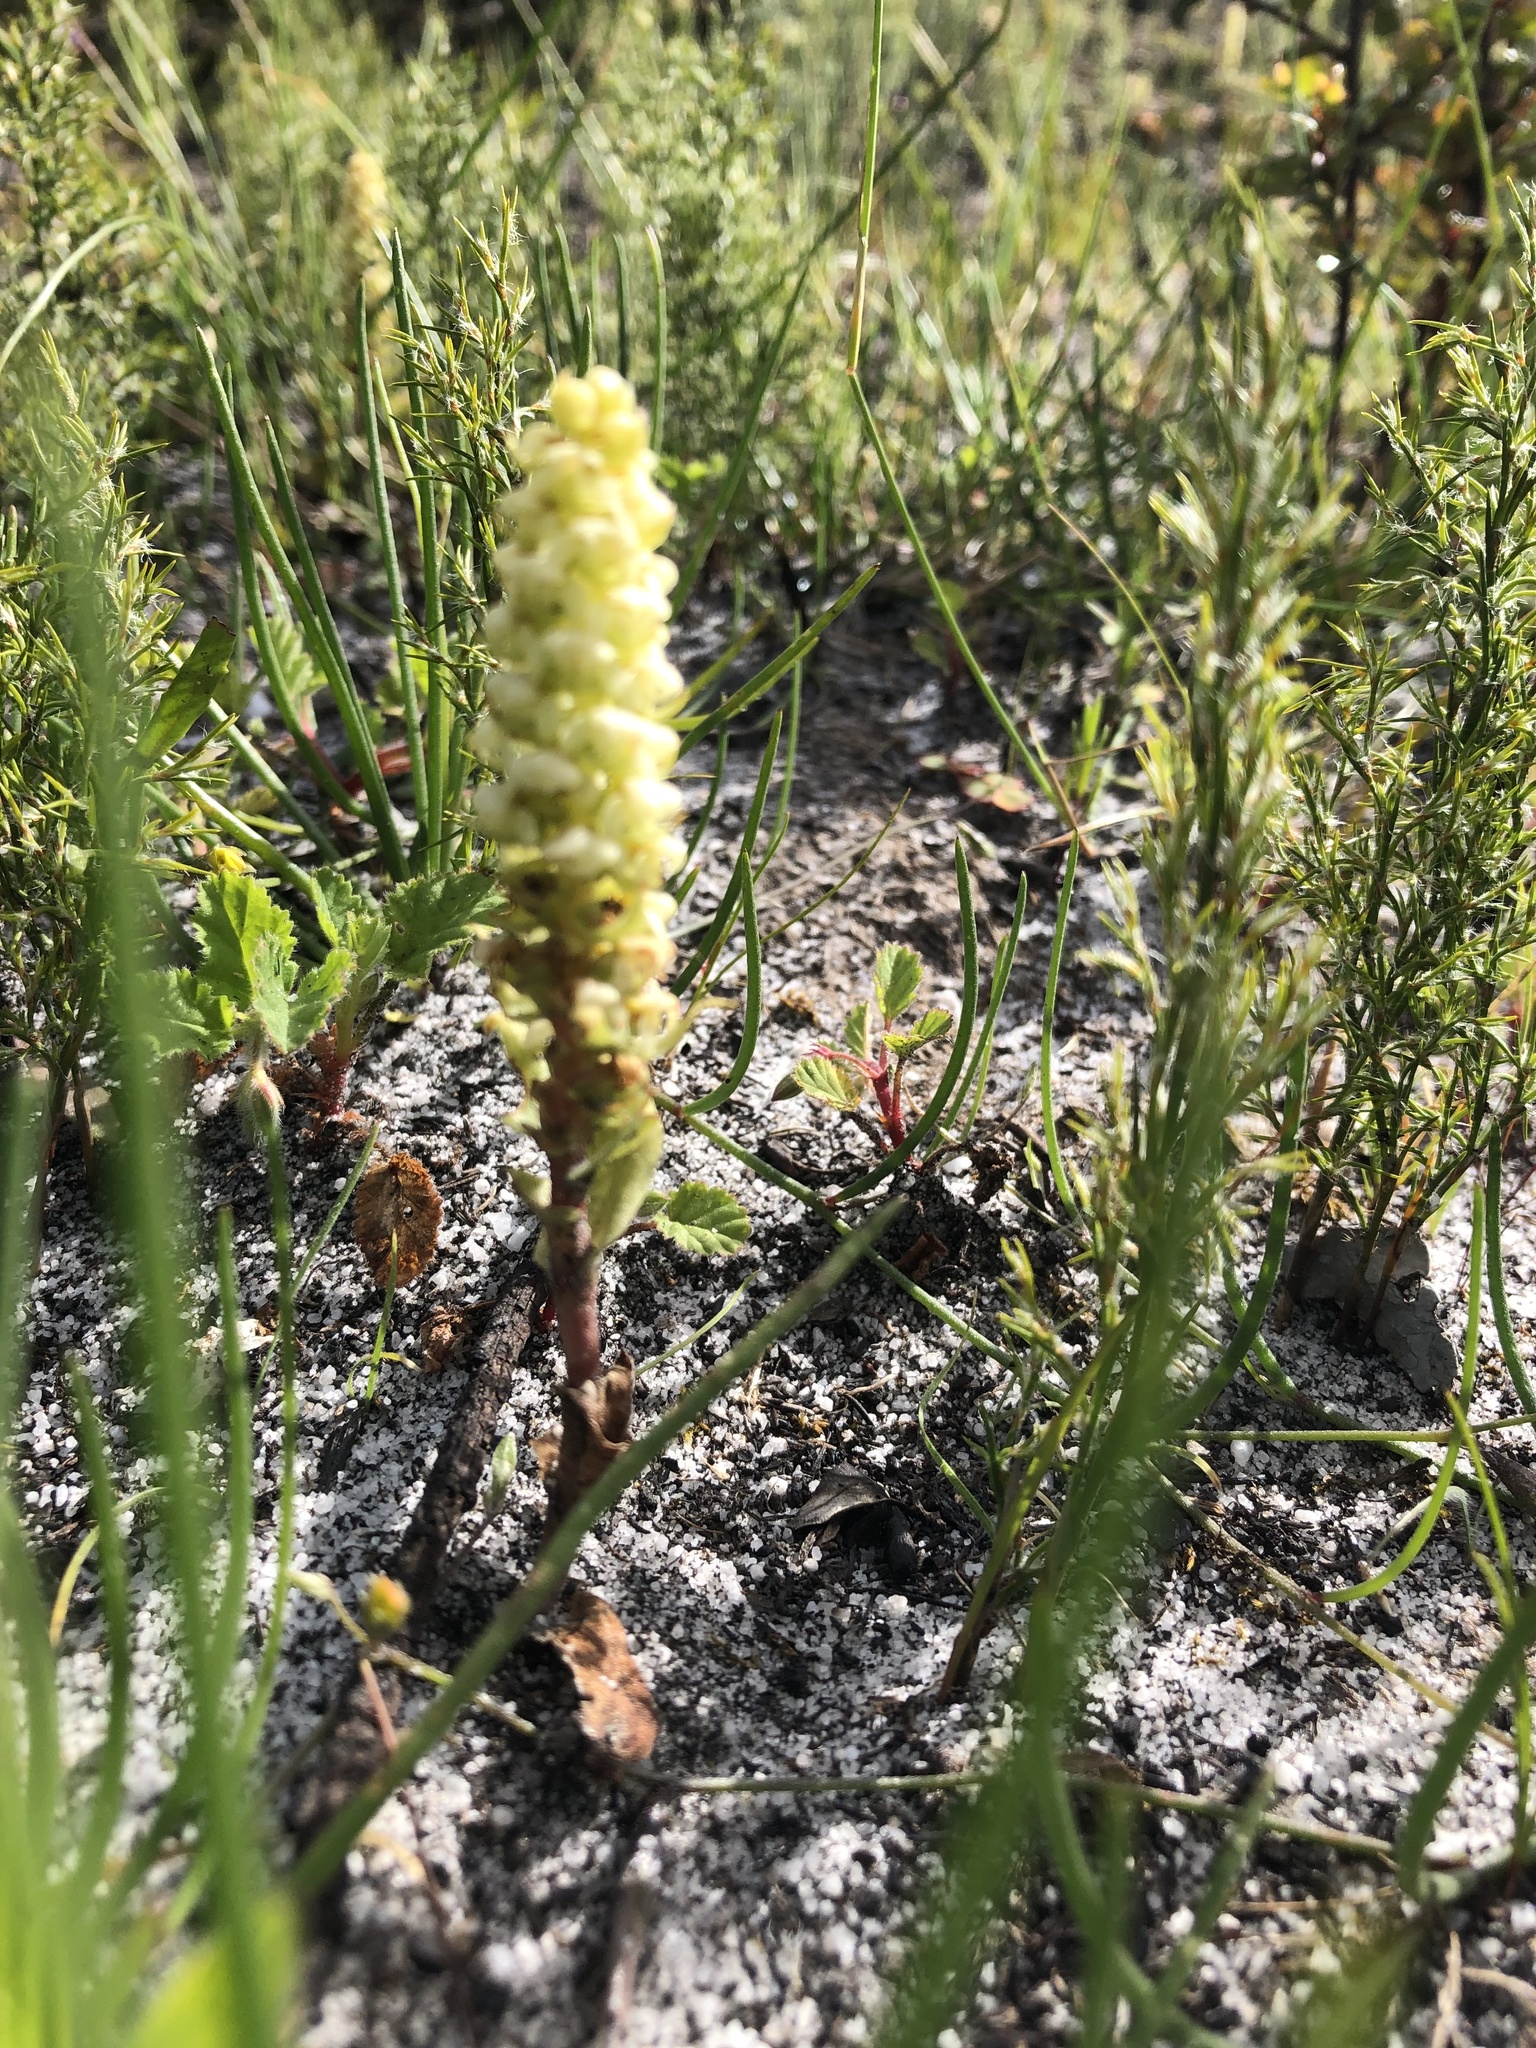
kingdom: Plantae
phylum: Tracheophyta
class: Liliopsida
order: Asparagales
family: Orchidaceae
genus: Satyrium
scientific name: Satyrium bicallosum
